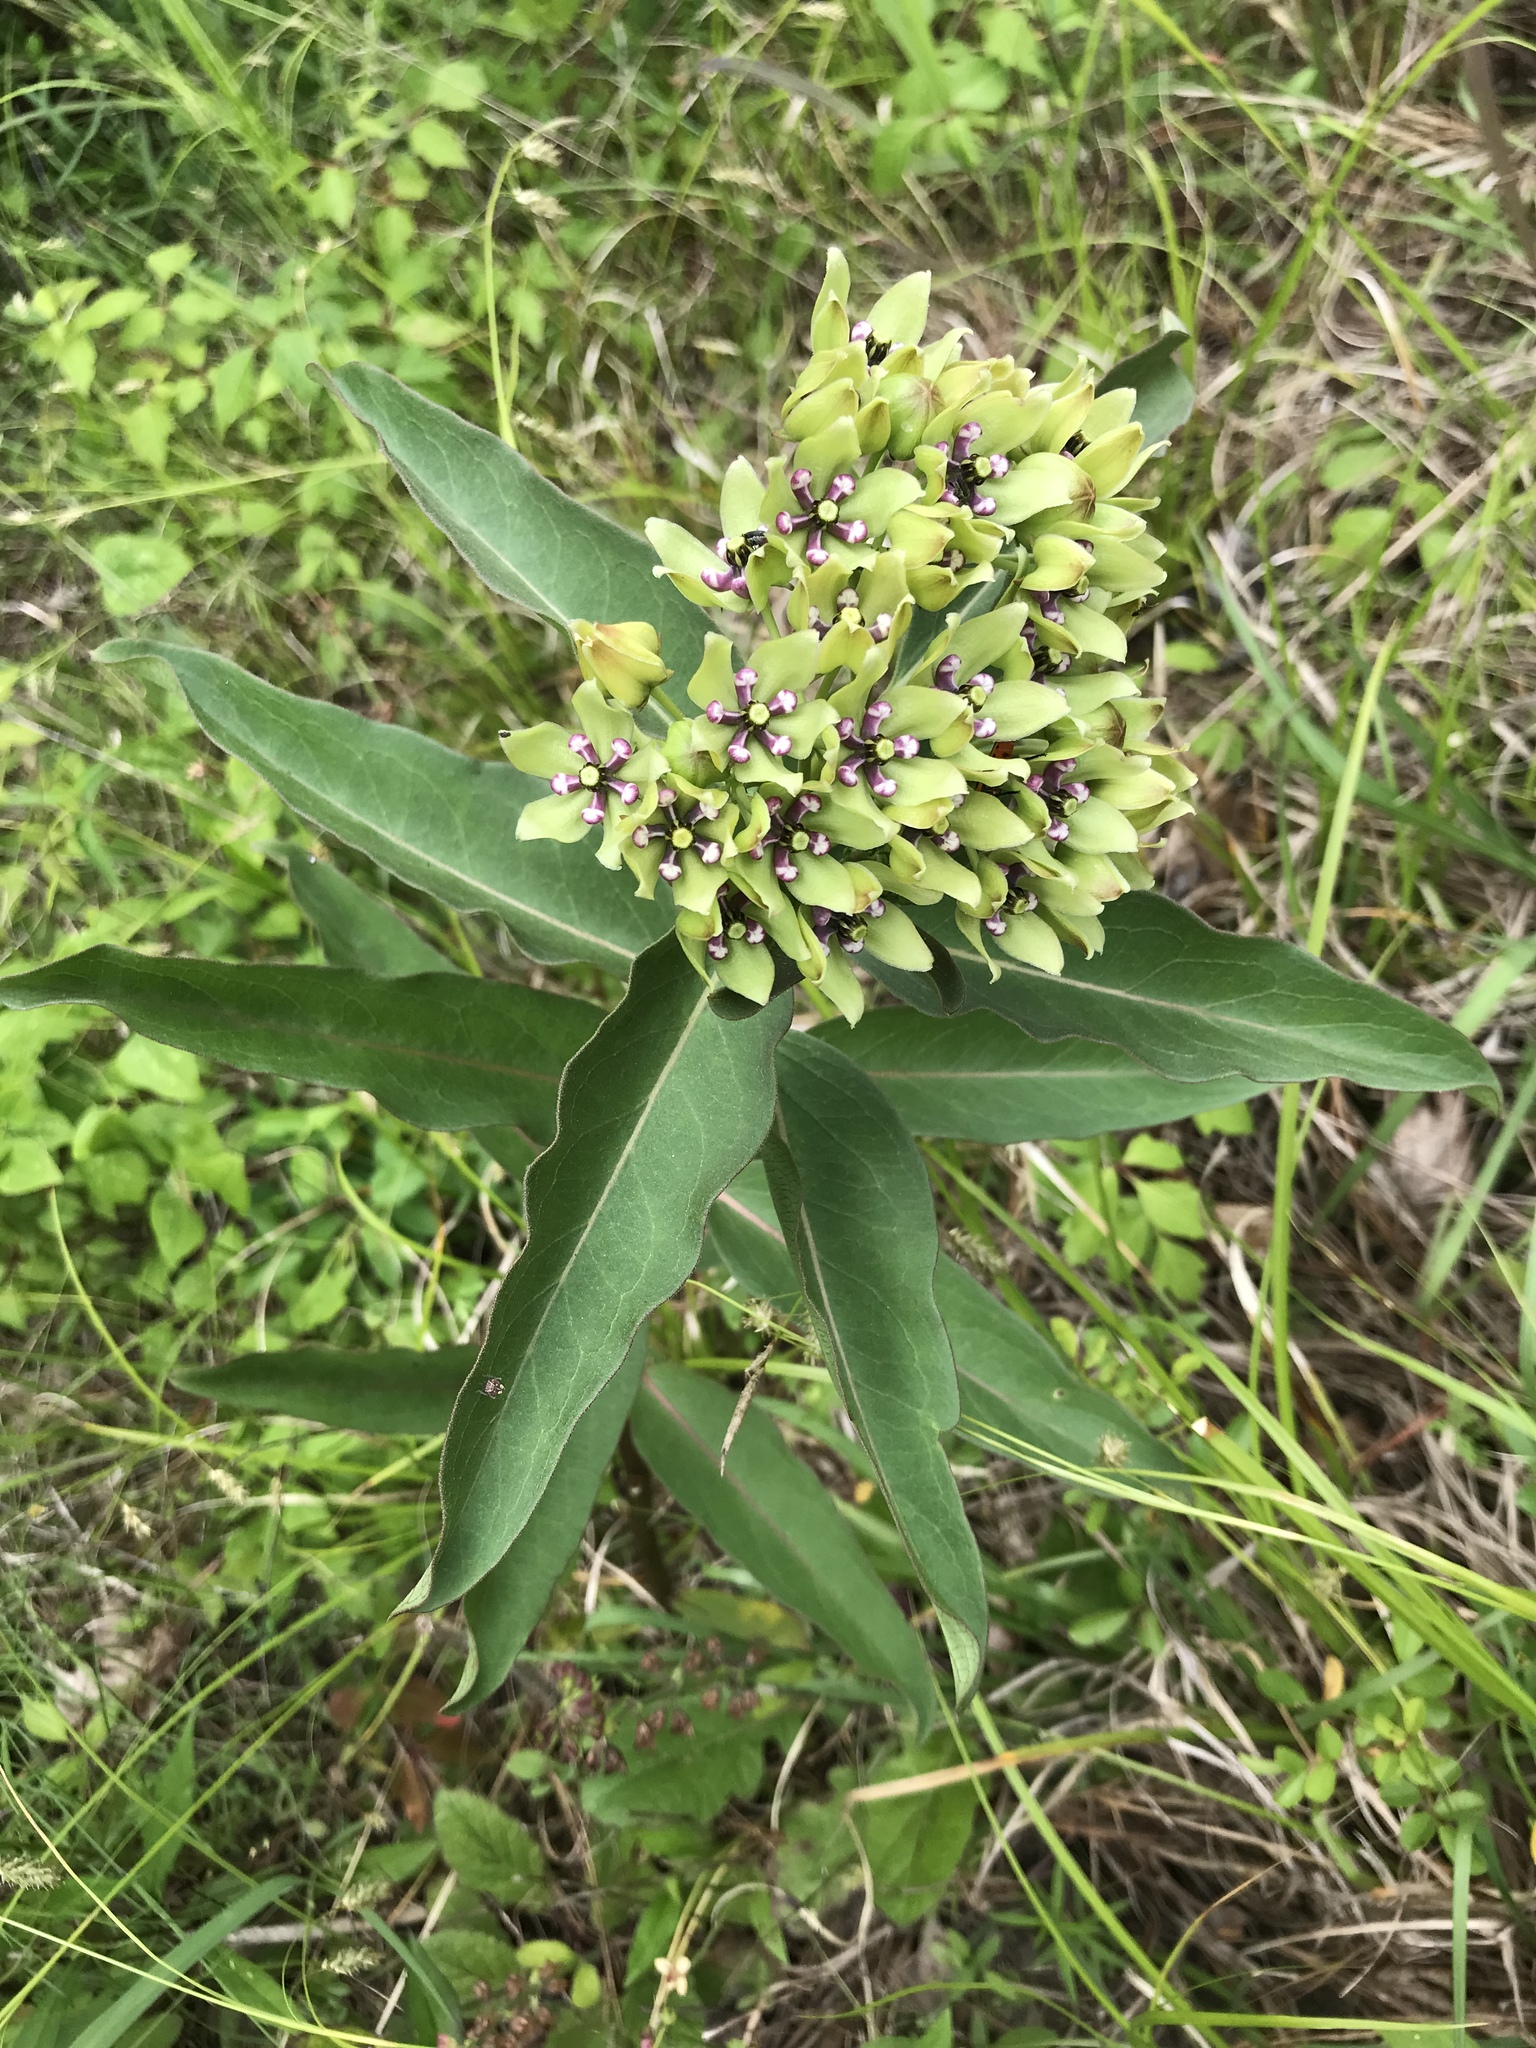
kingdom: Plantae
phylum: Tracheophyta
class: Magnoliopsida
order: Gentianales
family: Apocynaceae
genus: Asclepias
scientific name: Asclepias viridis
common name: Antelope-horns
